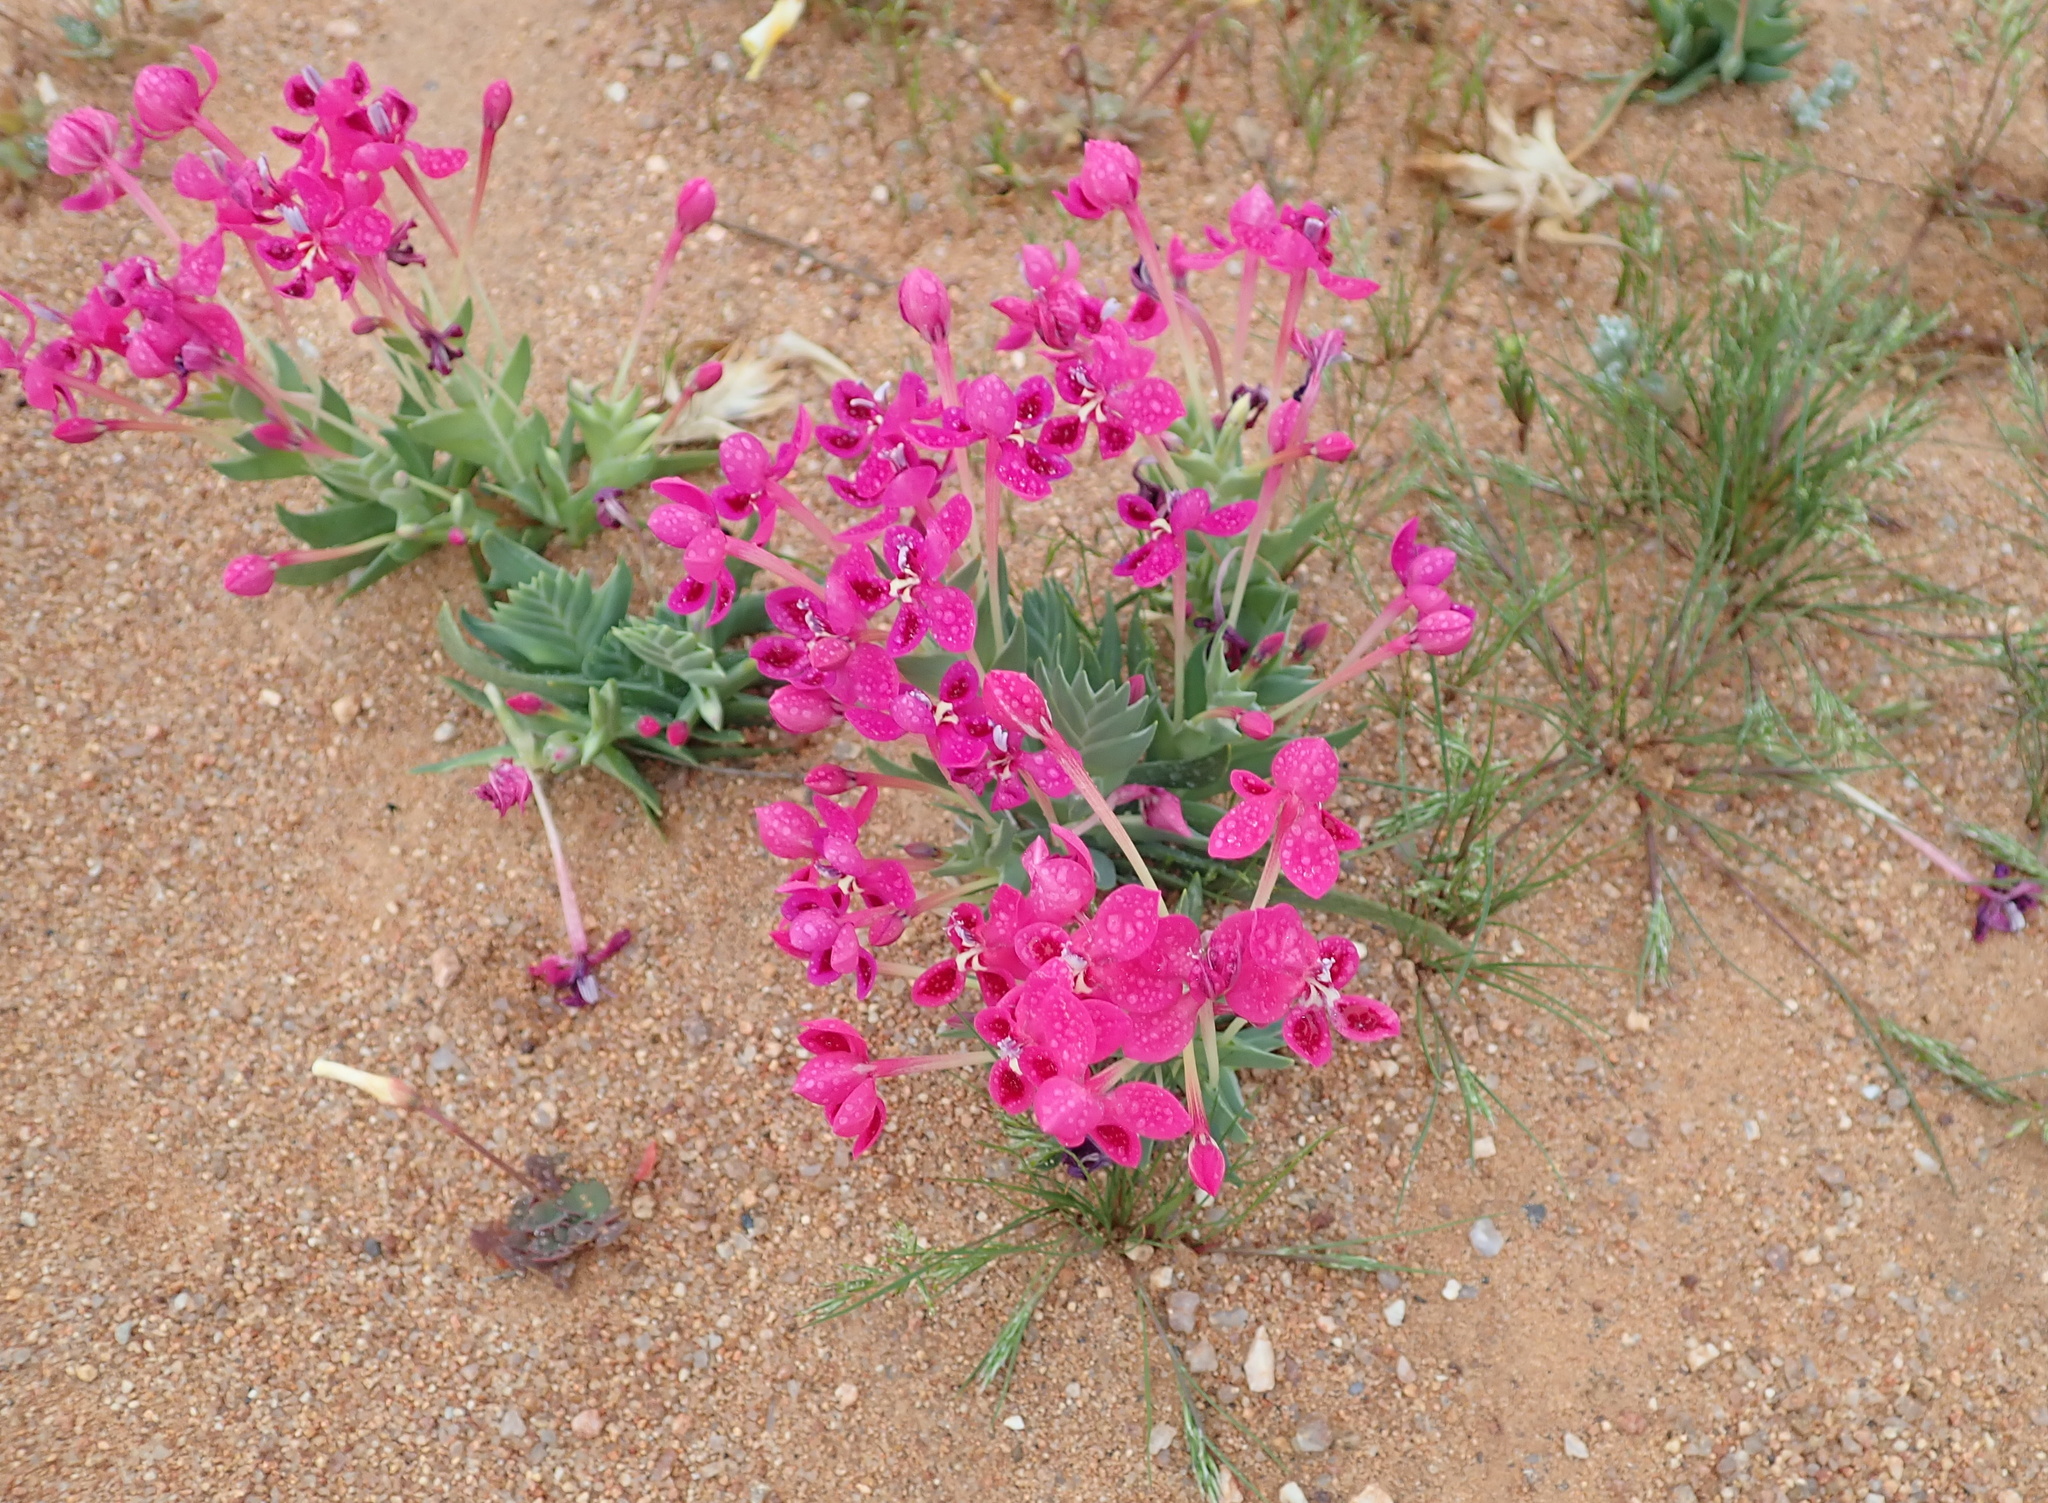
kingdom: Plantae
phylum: Tracheophyta
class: Liliopsida
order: Asparagales
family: Iridaceae
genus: Lapeirousia
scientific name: Lapeirousia silenoides
